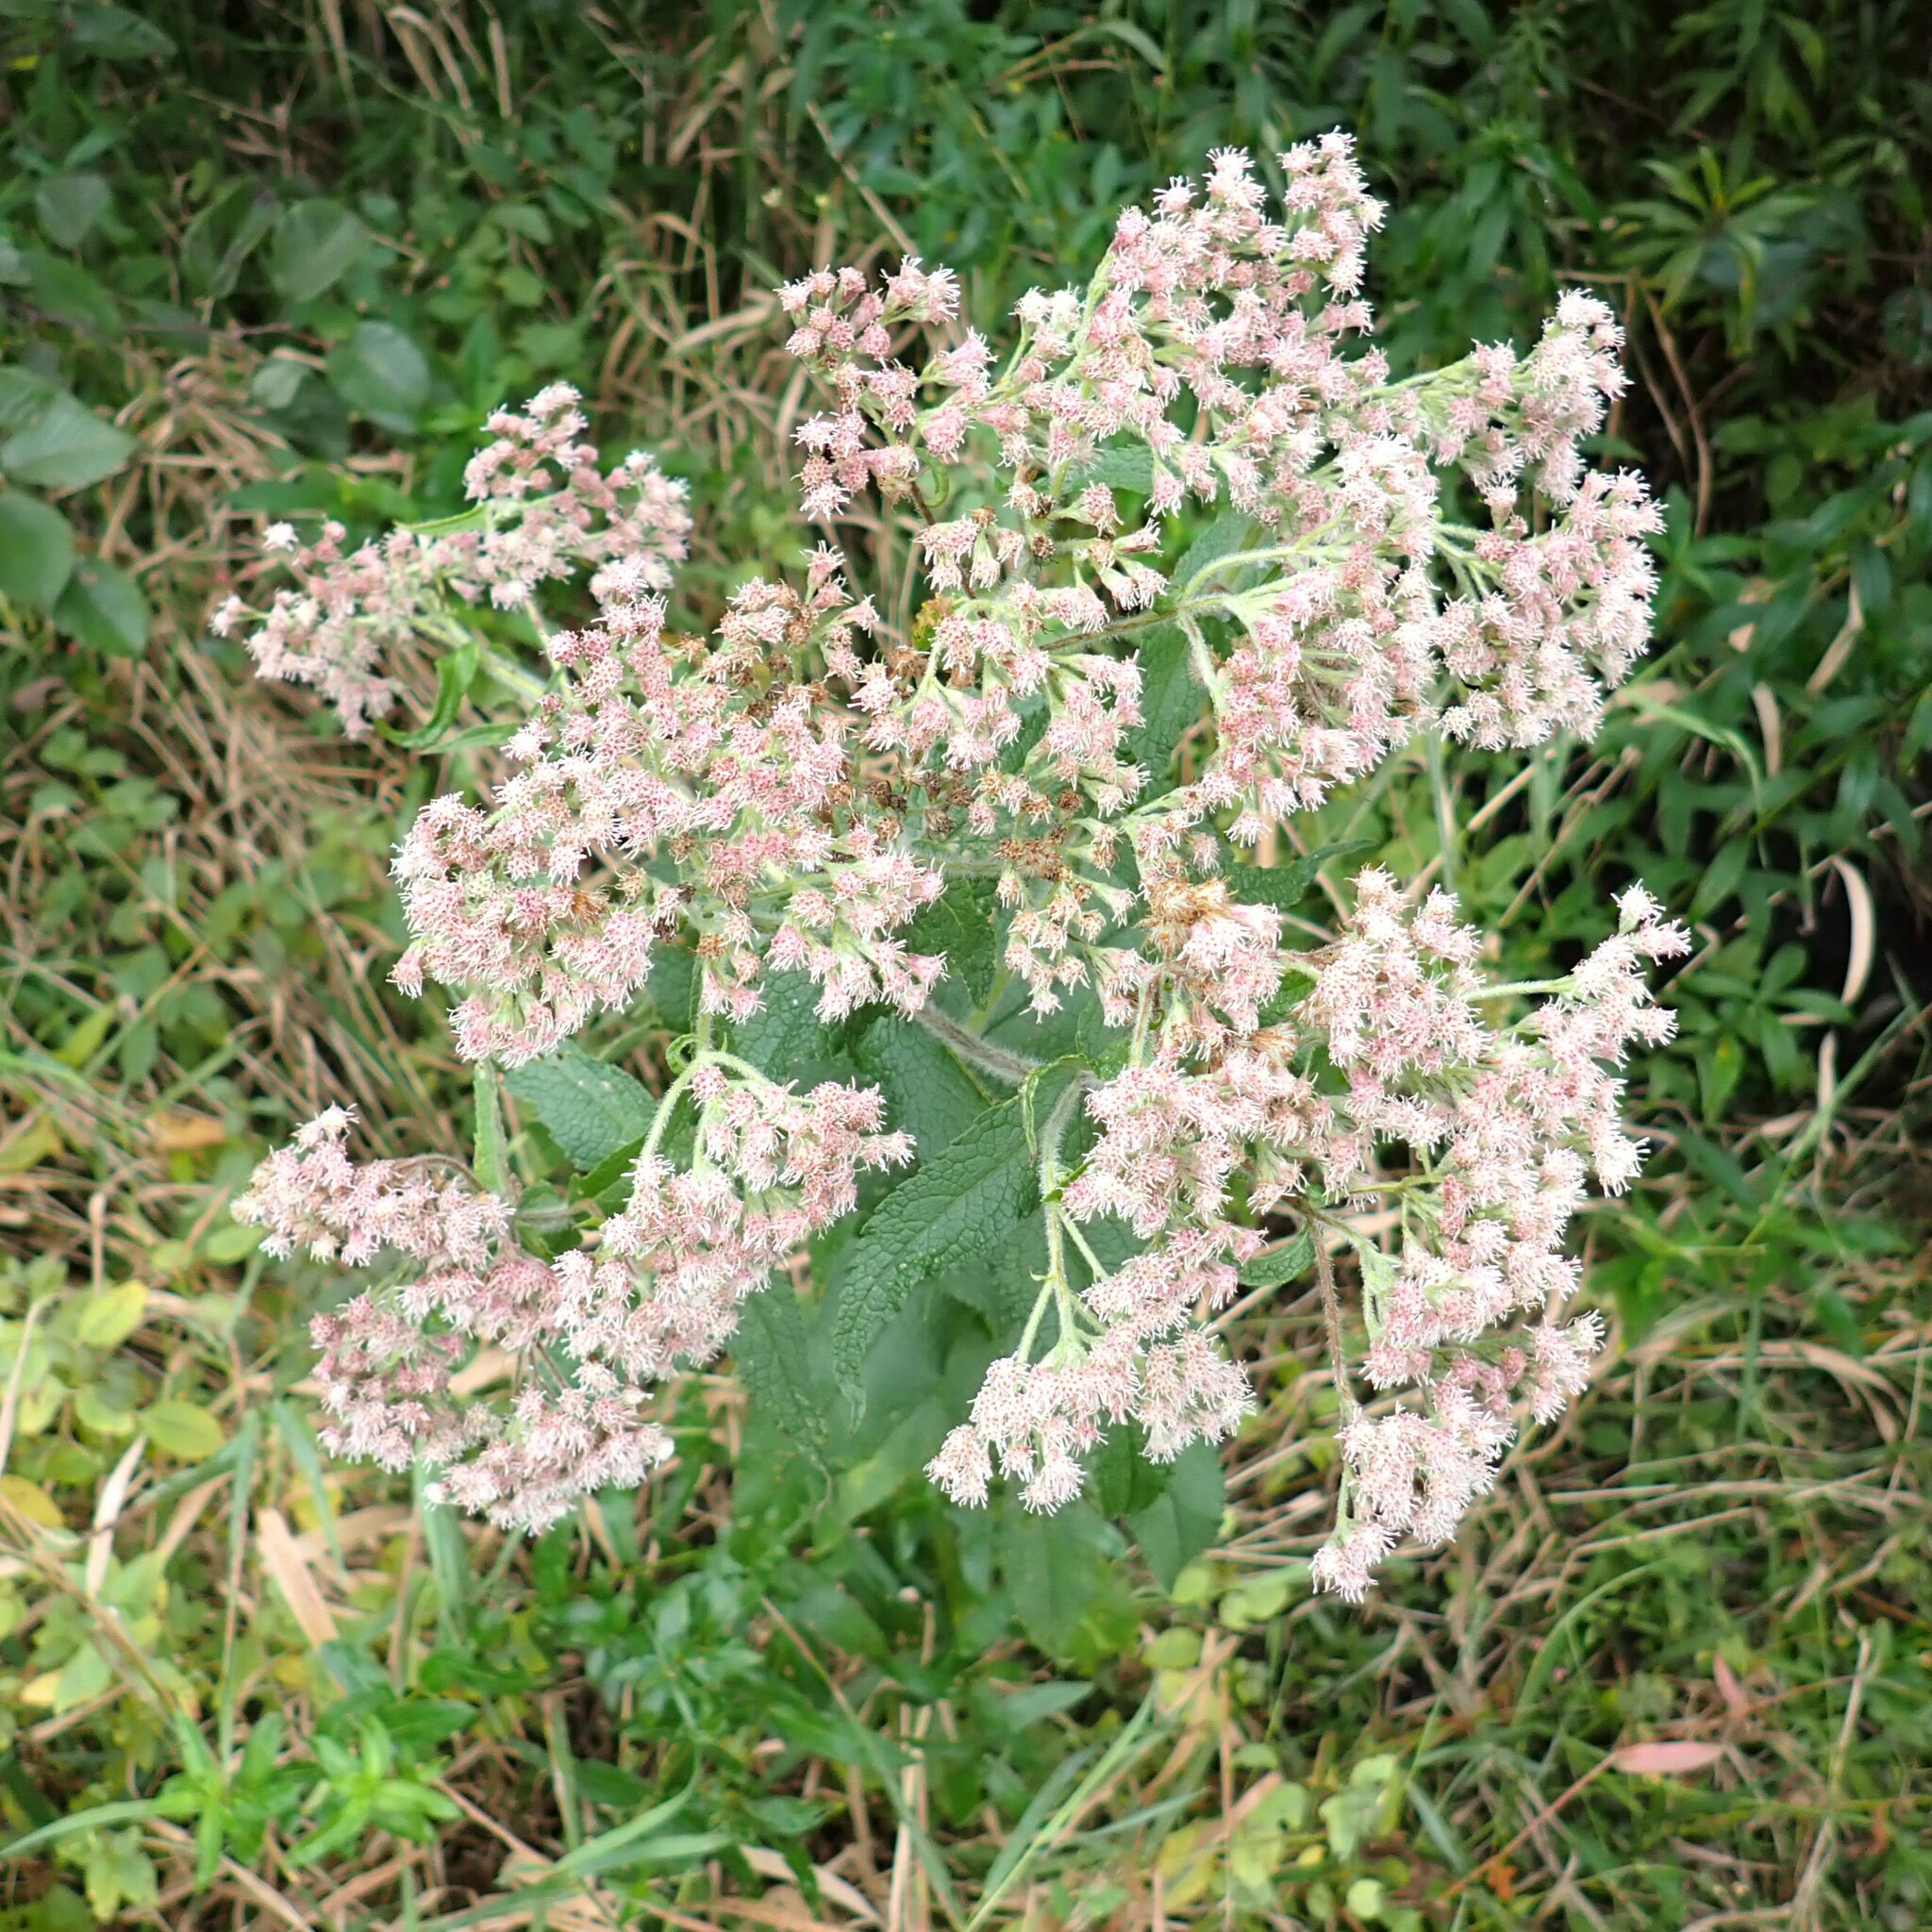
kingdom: Plantae
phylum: Tracheophyta
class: Magnoliopsida
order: Asterales
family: Asteraceae
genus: Eupatorium
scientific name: Eupatorium perfoliatum
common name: Boneset
